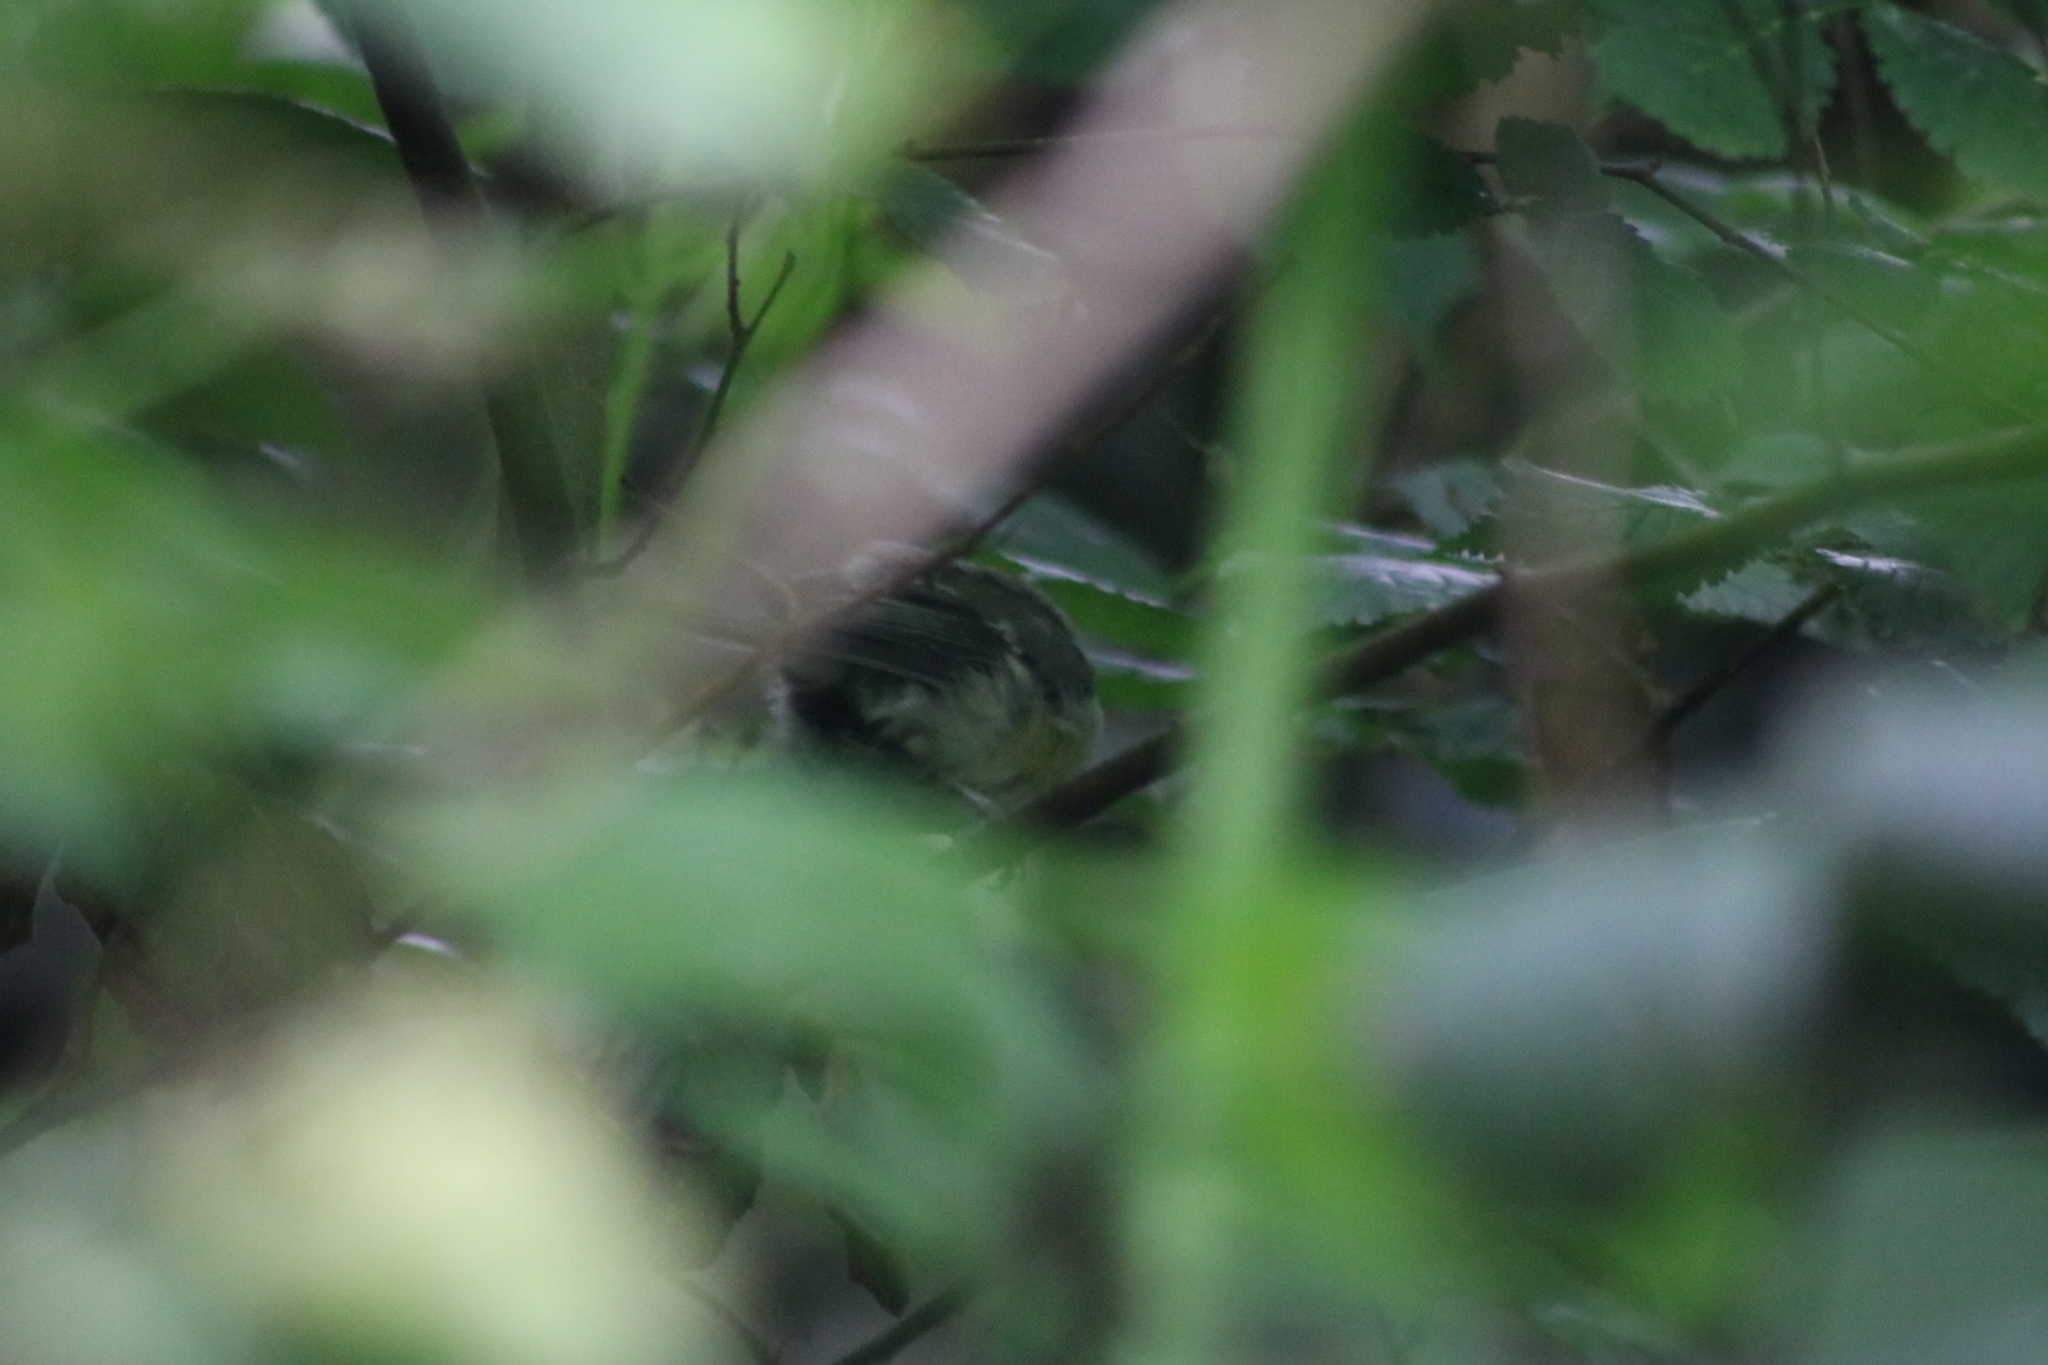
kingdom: Animalia
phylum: Chordata
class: Aves
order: Passeriformes
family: Paridae
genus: Parus
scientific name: Parus major
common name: Great tit
